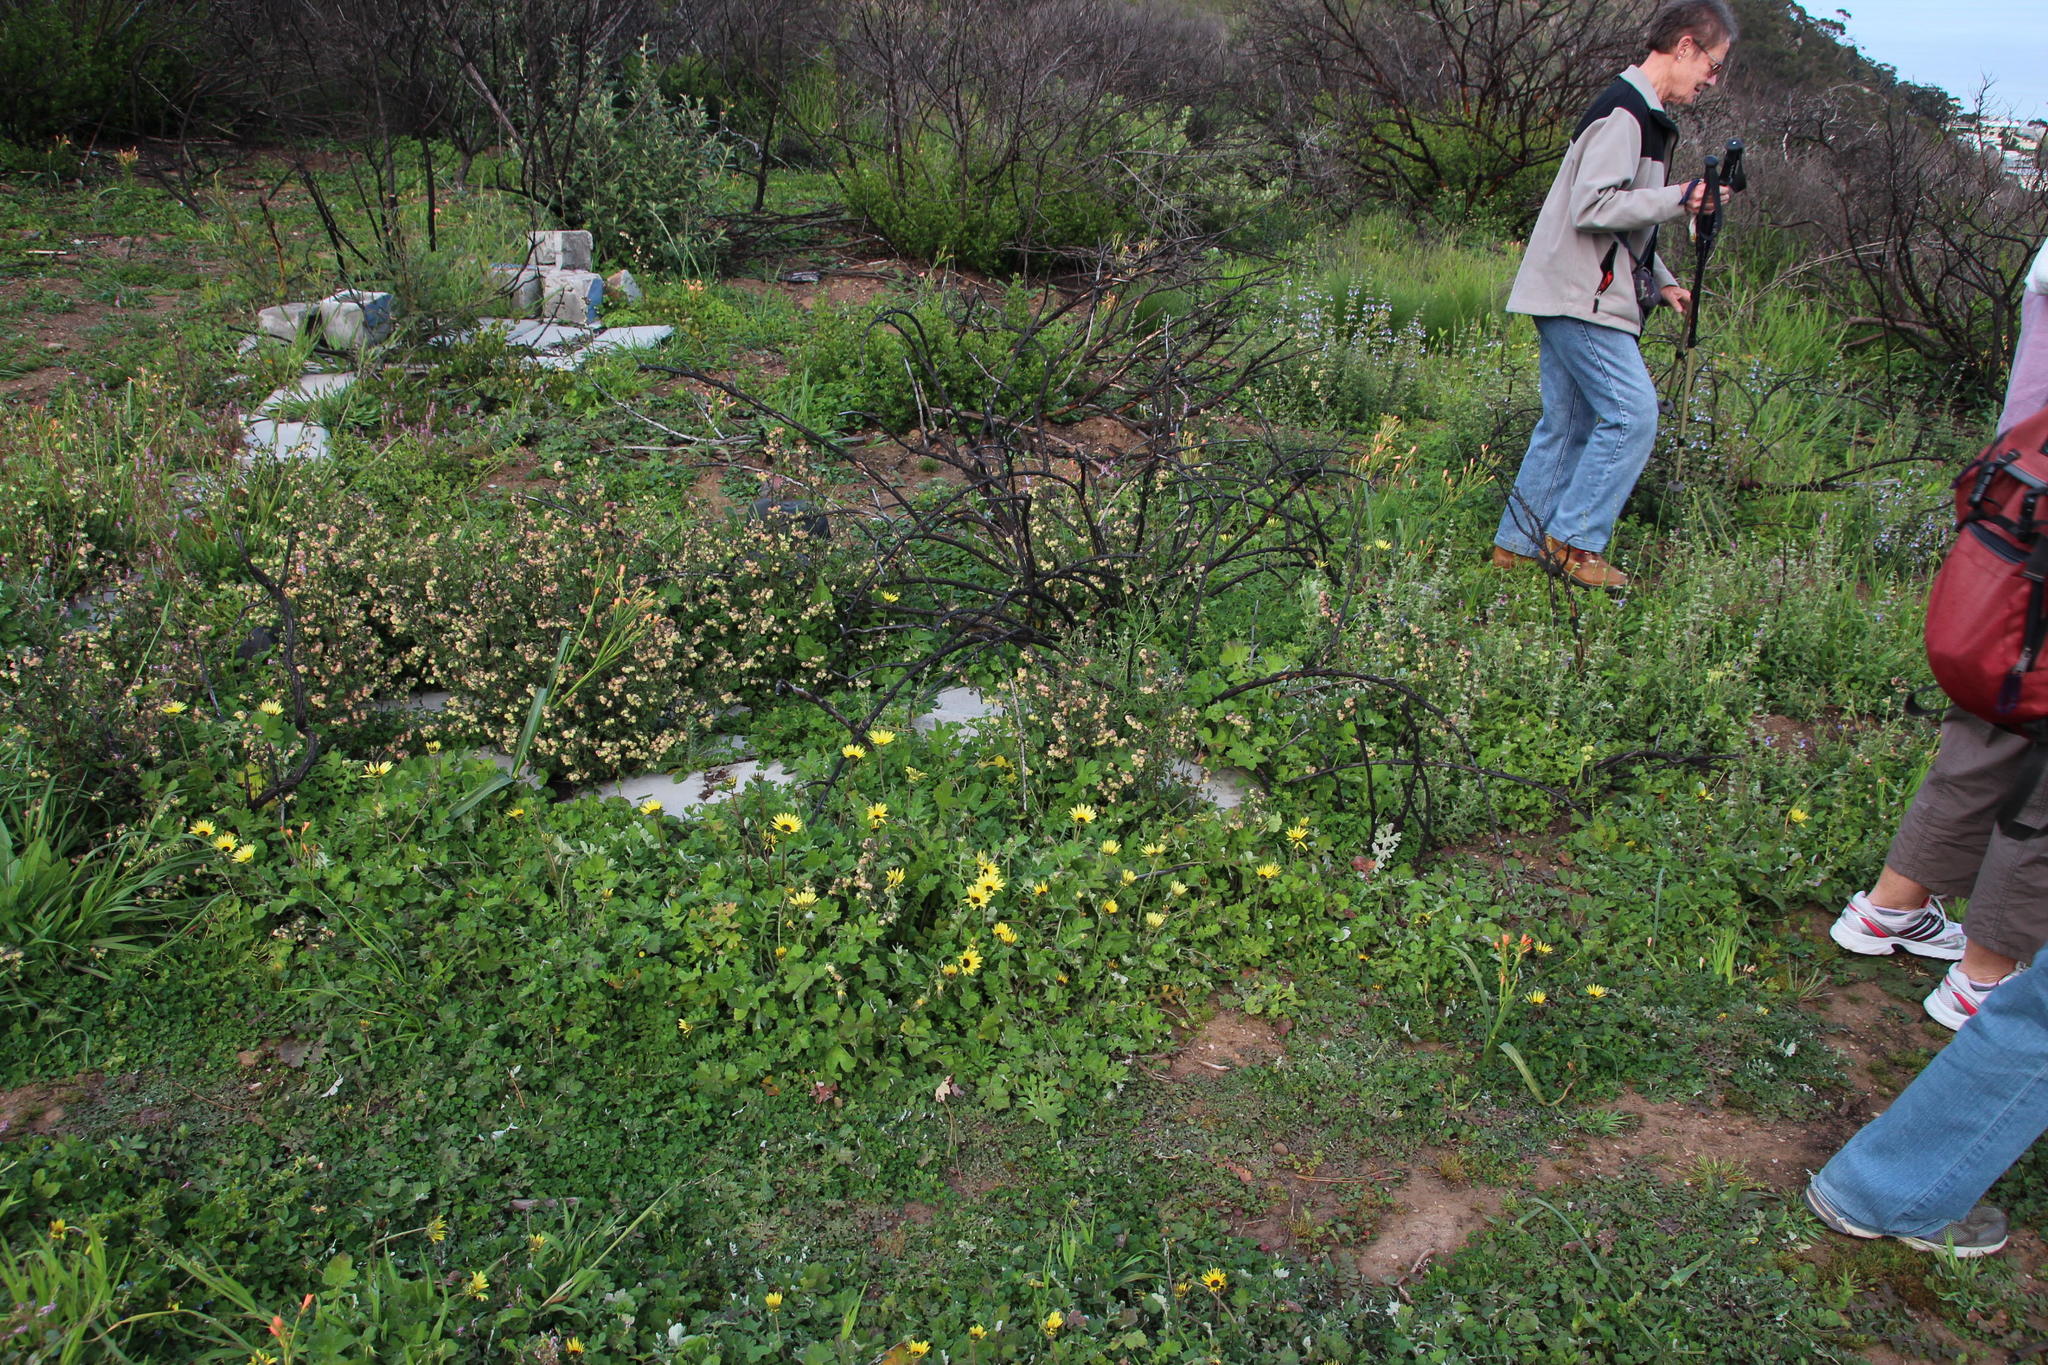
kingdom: Plantae
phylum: Tracheophyta
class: Magnoliopsida
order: Asterales
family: Asteraceae
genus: Arctotheca
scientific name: Arctotheca calendula
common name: Capeweed
